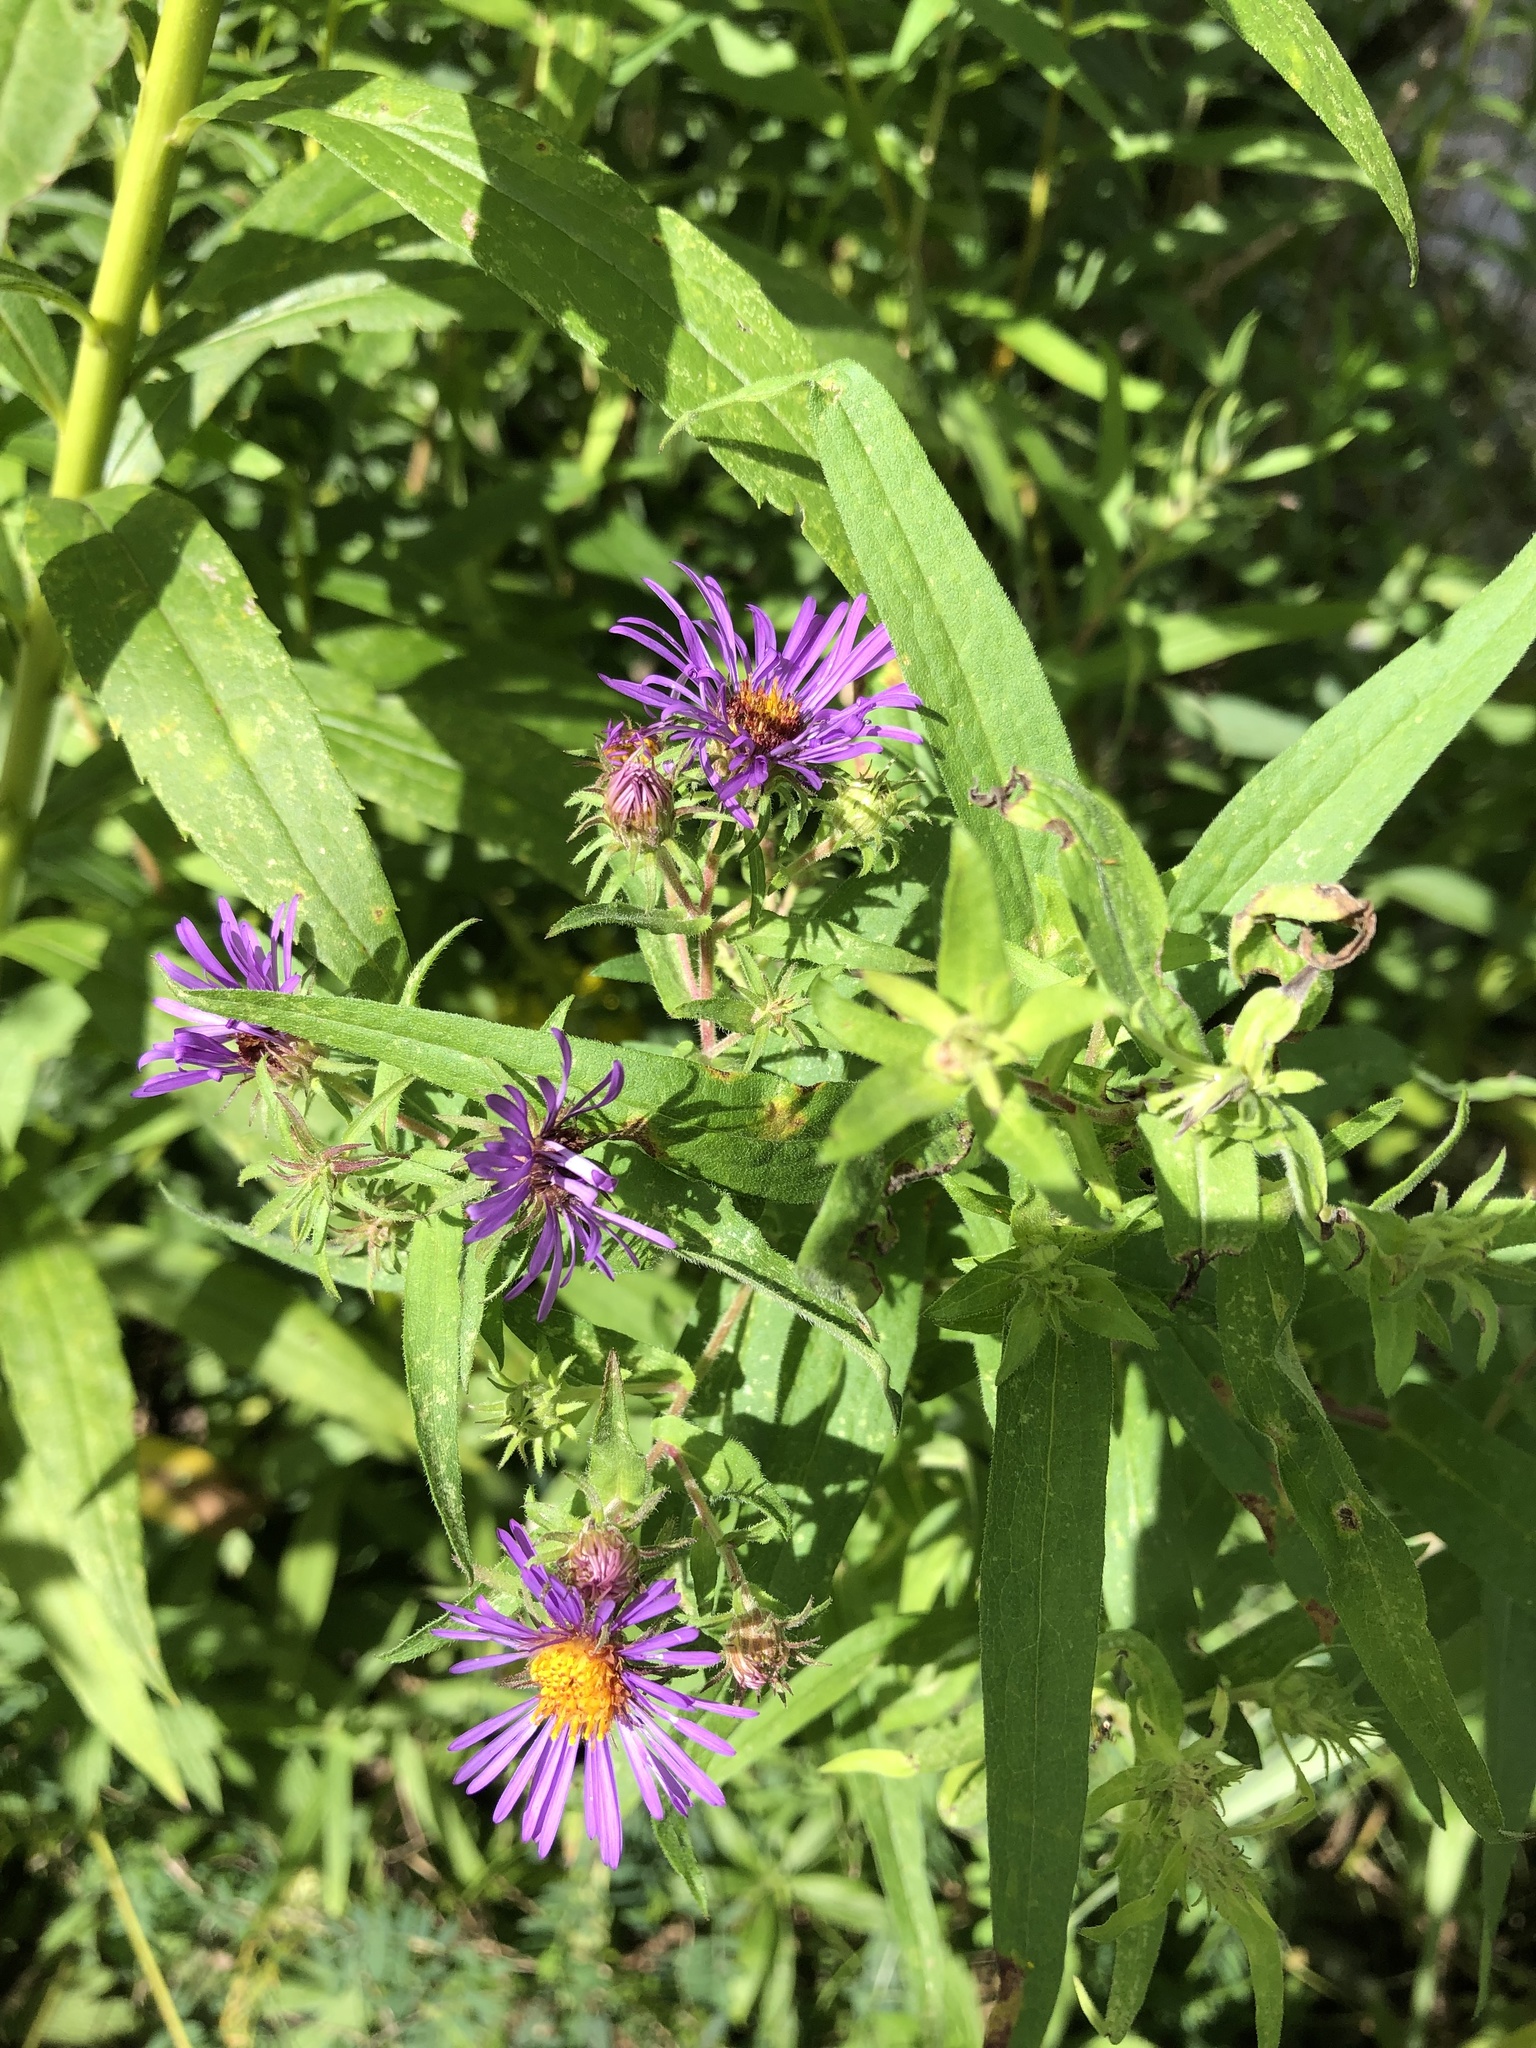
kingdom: Plantae
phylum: Tracheophyta
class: Magnoliopsida
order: Asterales
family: Asteraceae
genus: Symphyotrichum
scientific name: Symphyotrichum novae-angliae
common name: Michaelmas daisy
